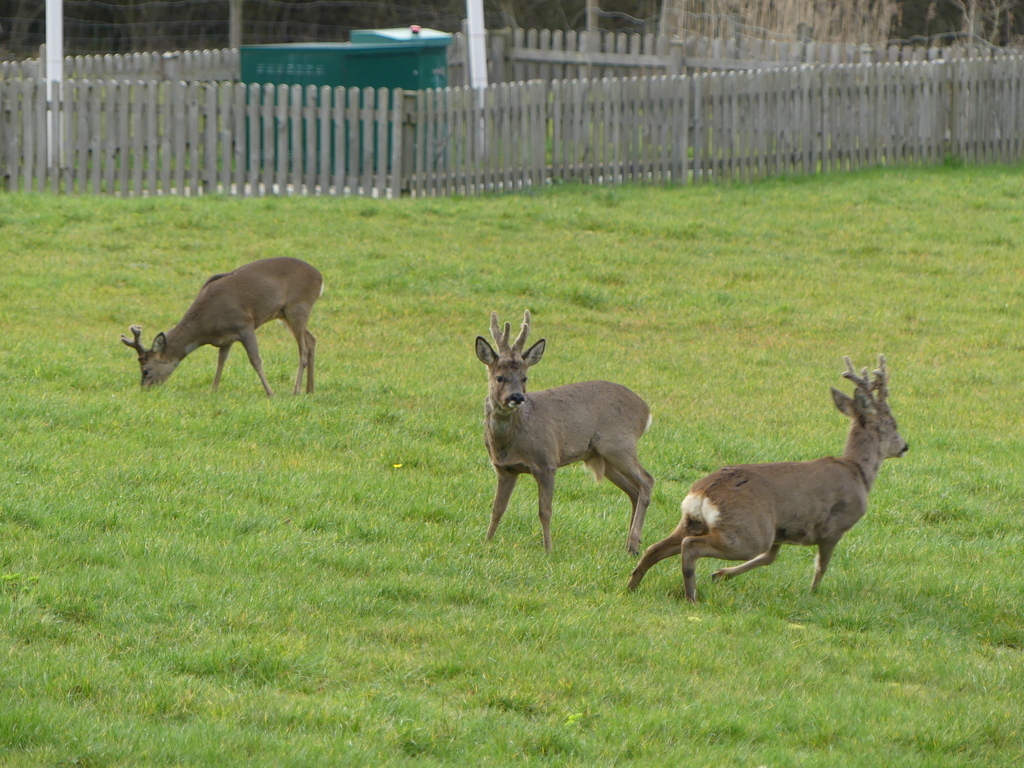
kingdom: Animalia
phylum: Chordata
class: Mammalia
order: Artiodactyla
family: Cervidae
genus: Capreolus
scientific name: Capreolus capreolus
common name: Western roe deer
